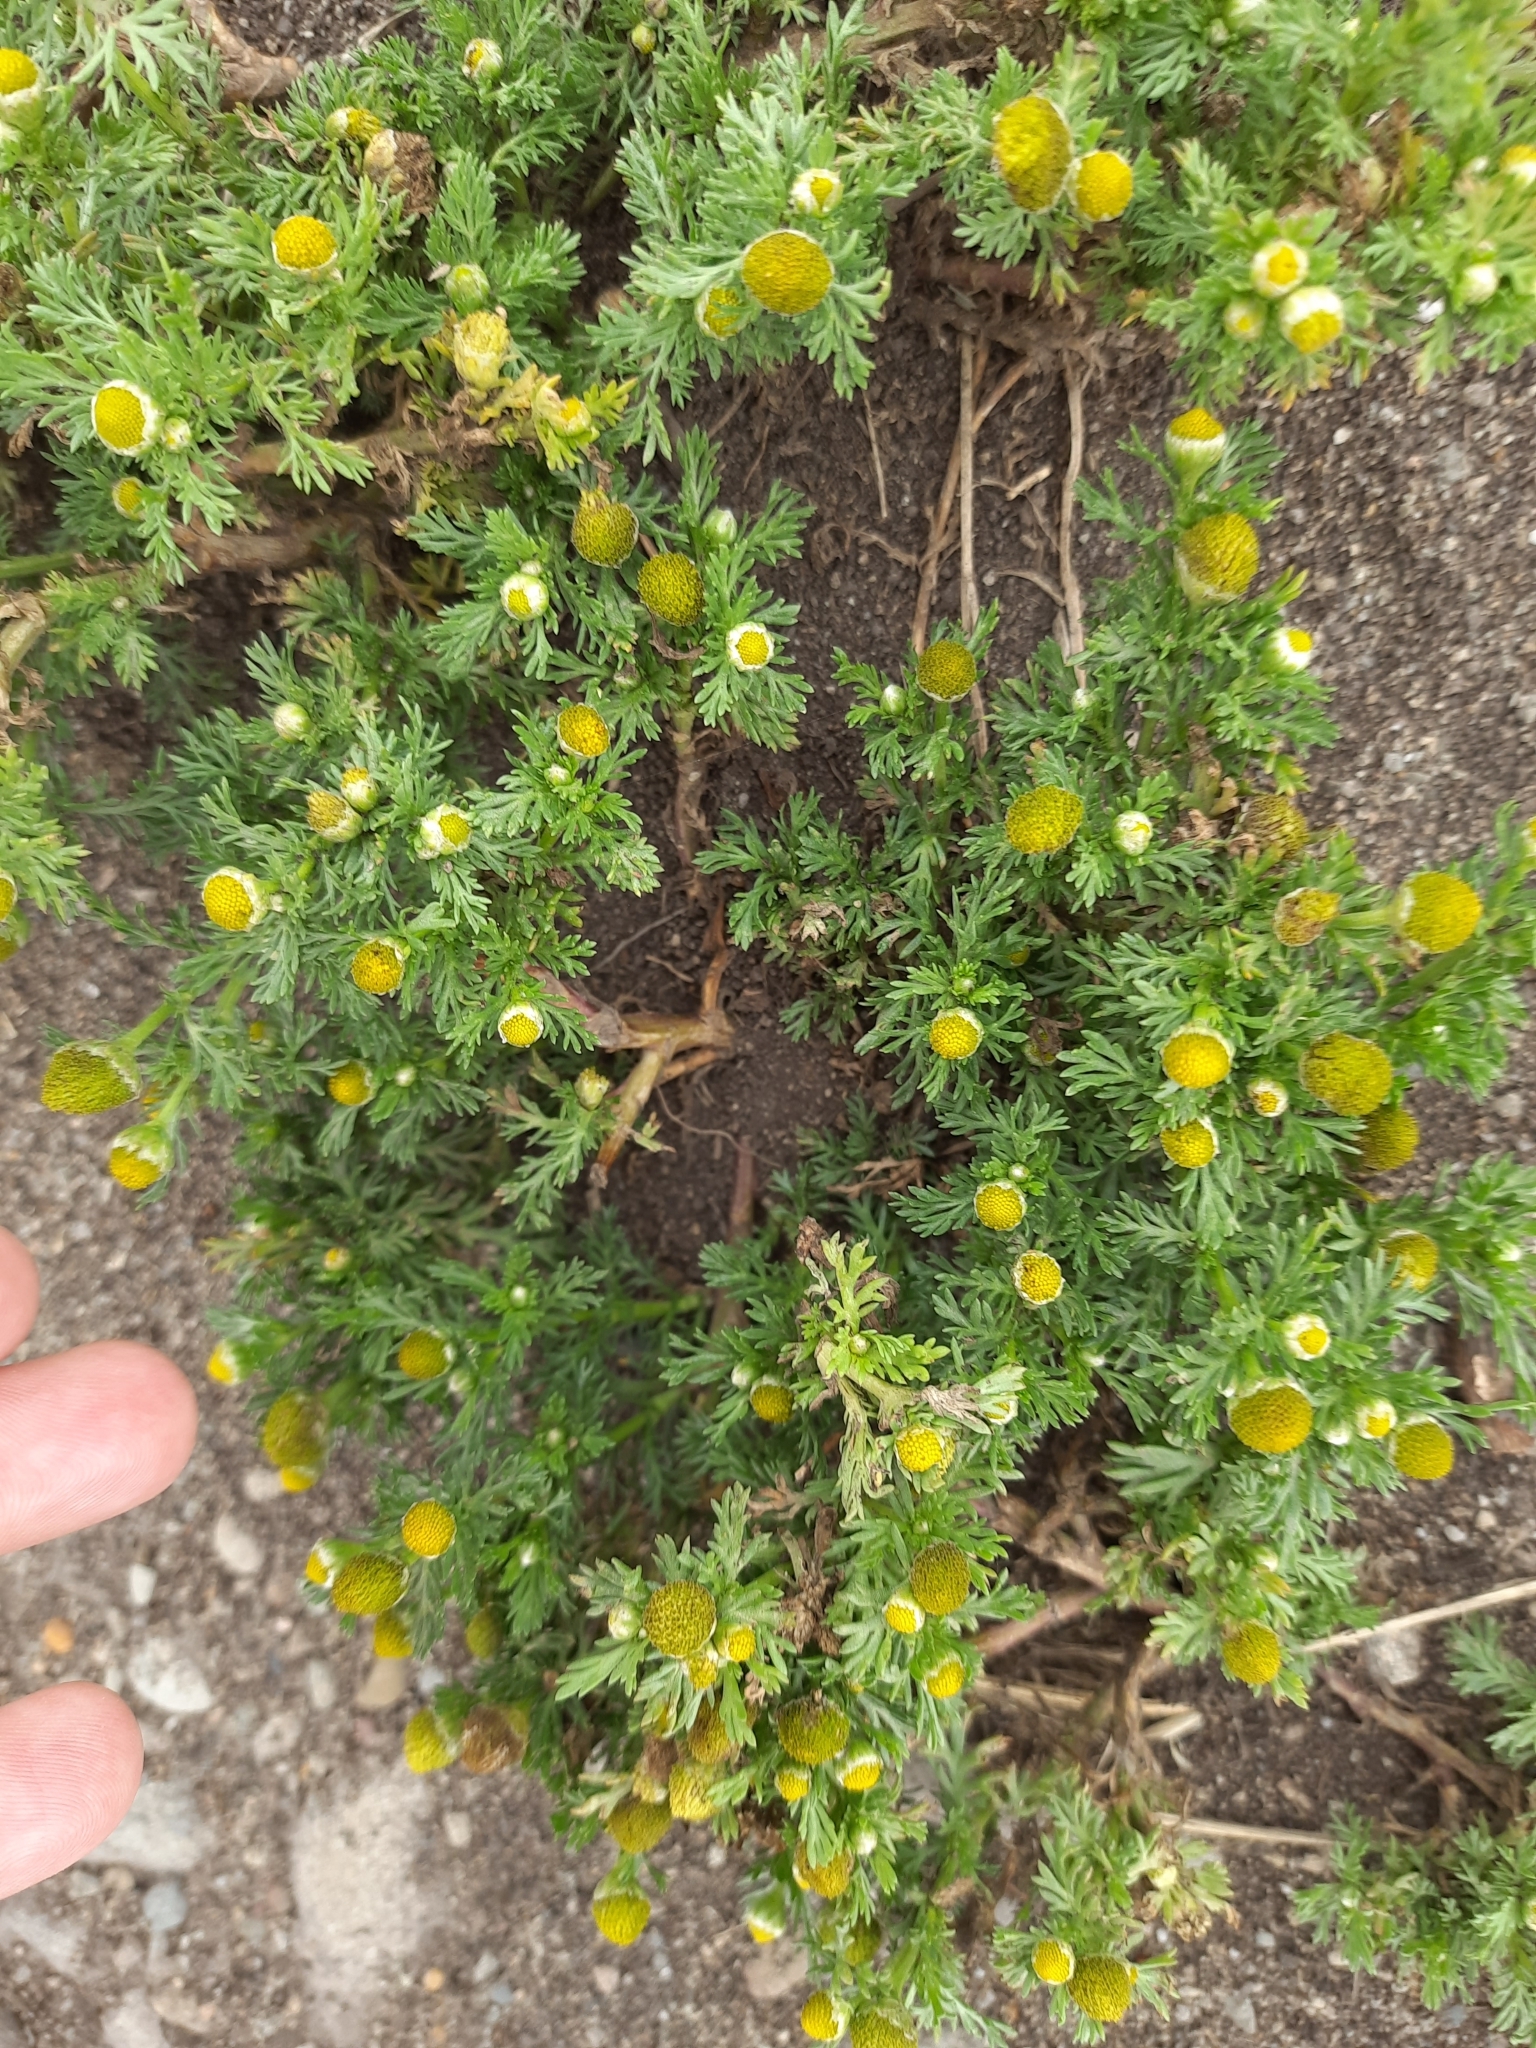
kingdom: Plantae
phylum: Tracheophyta
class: Magnoliopsida
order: Asterales
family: Asteraceae
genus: Matricaria
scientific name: Matricaria discoidea
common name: Disc mayweed
